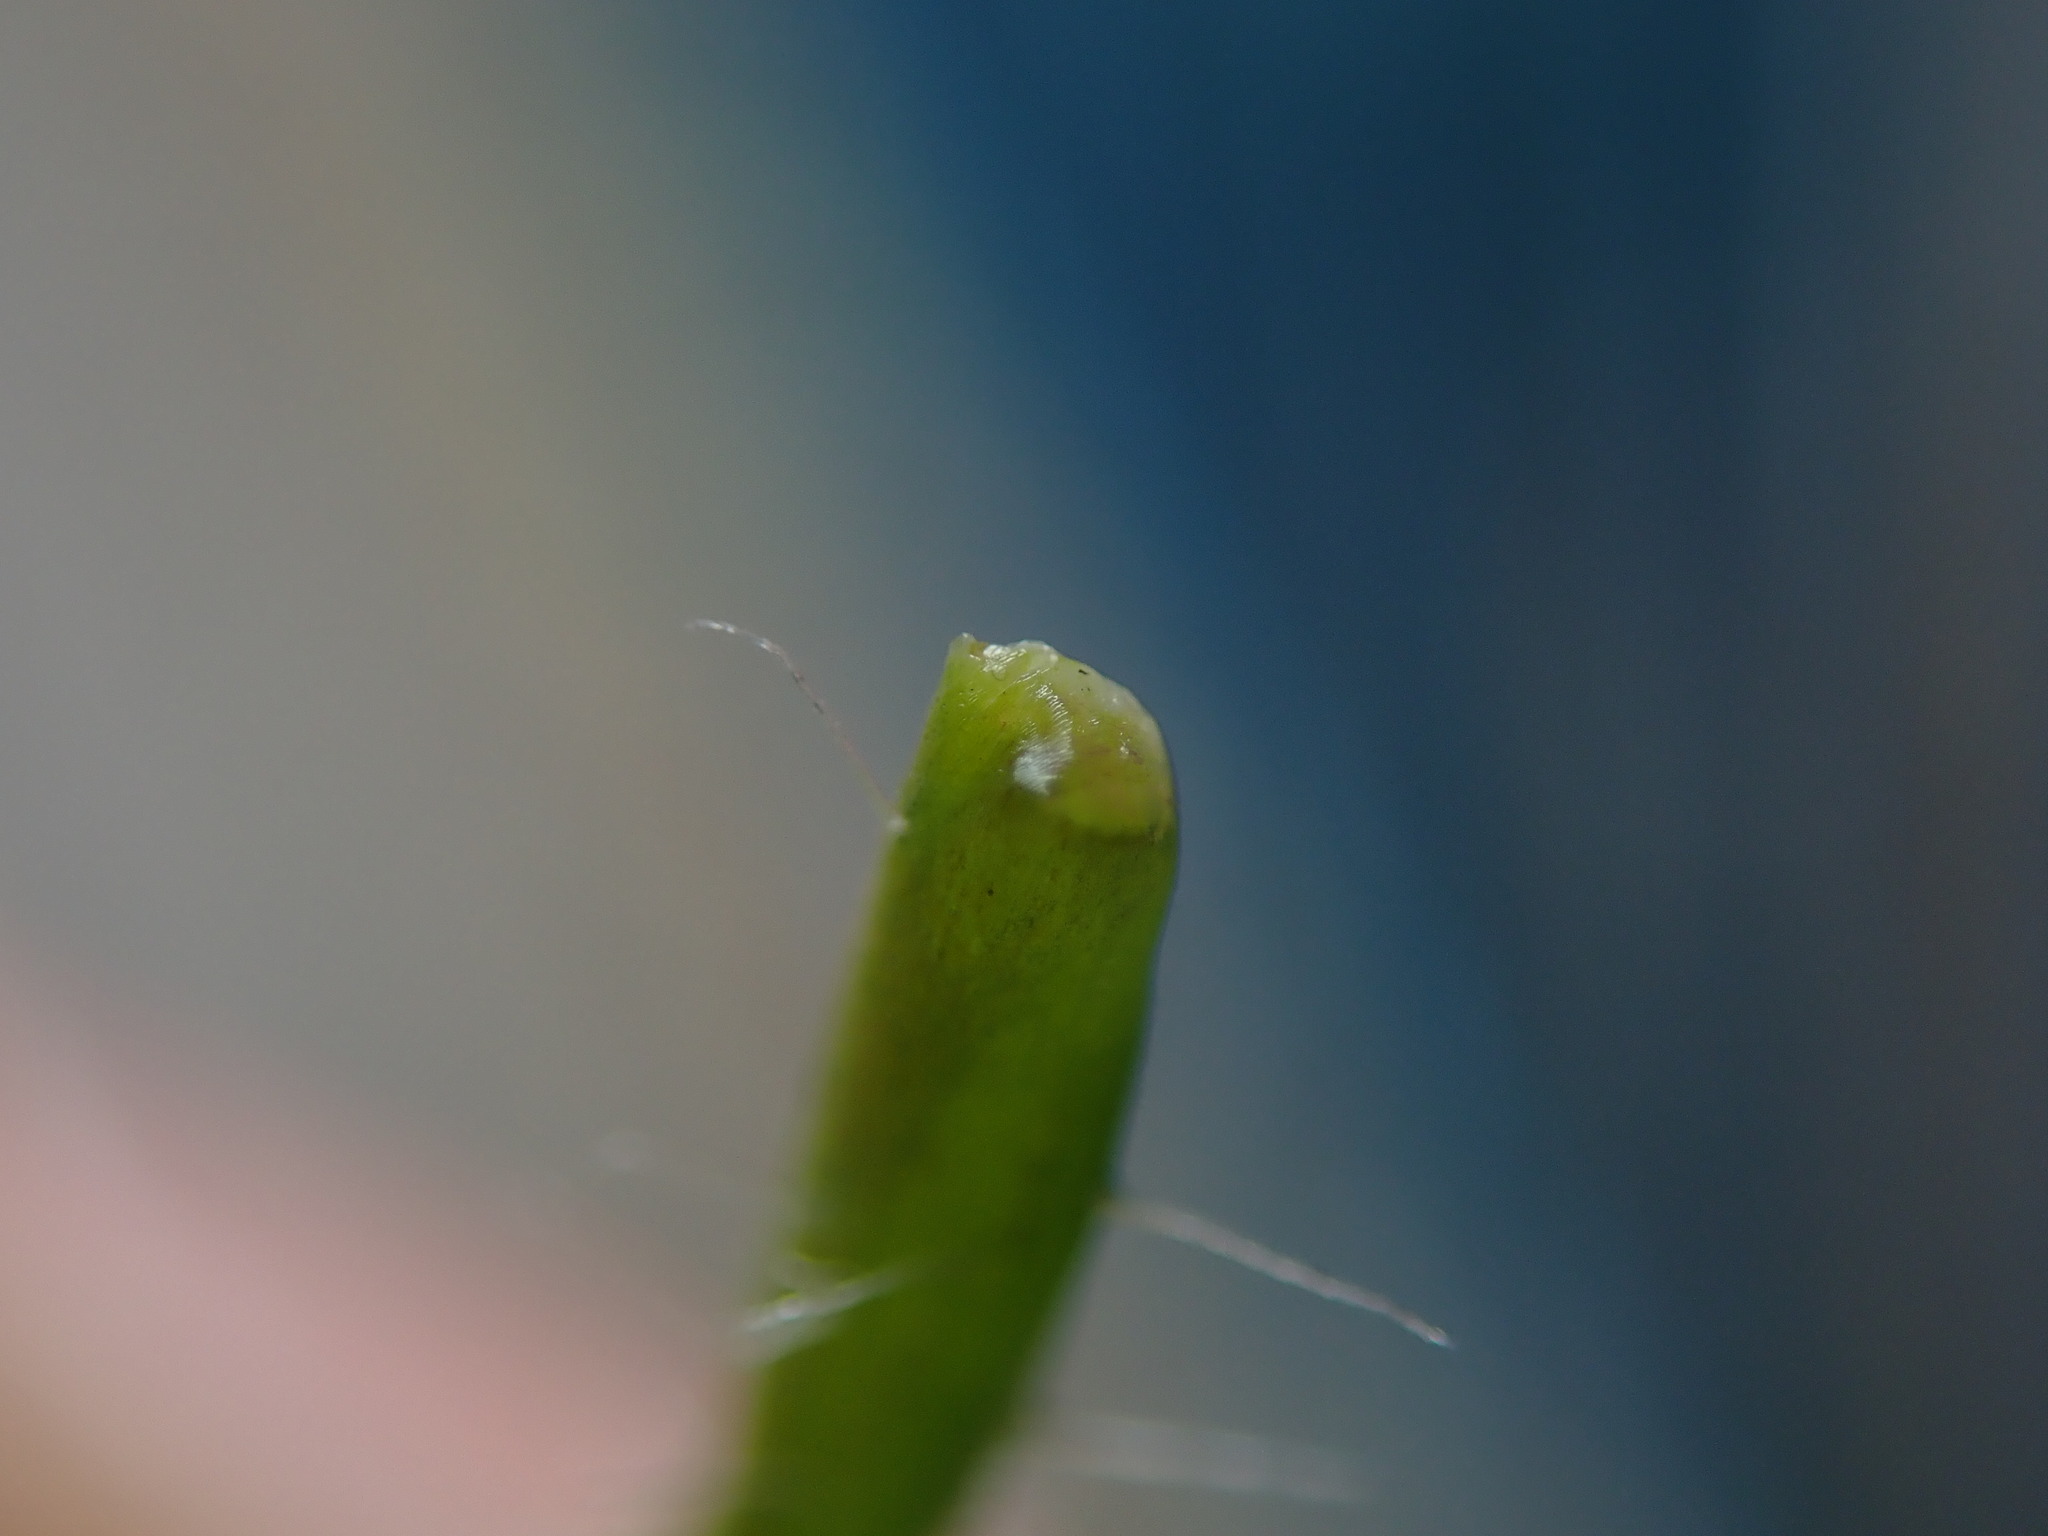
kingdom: Plantae
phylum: Tracheophyta
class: Magnoliopsida
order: Ranunculales
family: Papaveraceae
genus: Papaver
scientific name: Papaver dubium
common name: Long-headed poppy
